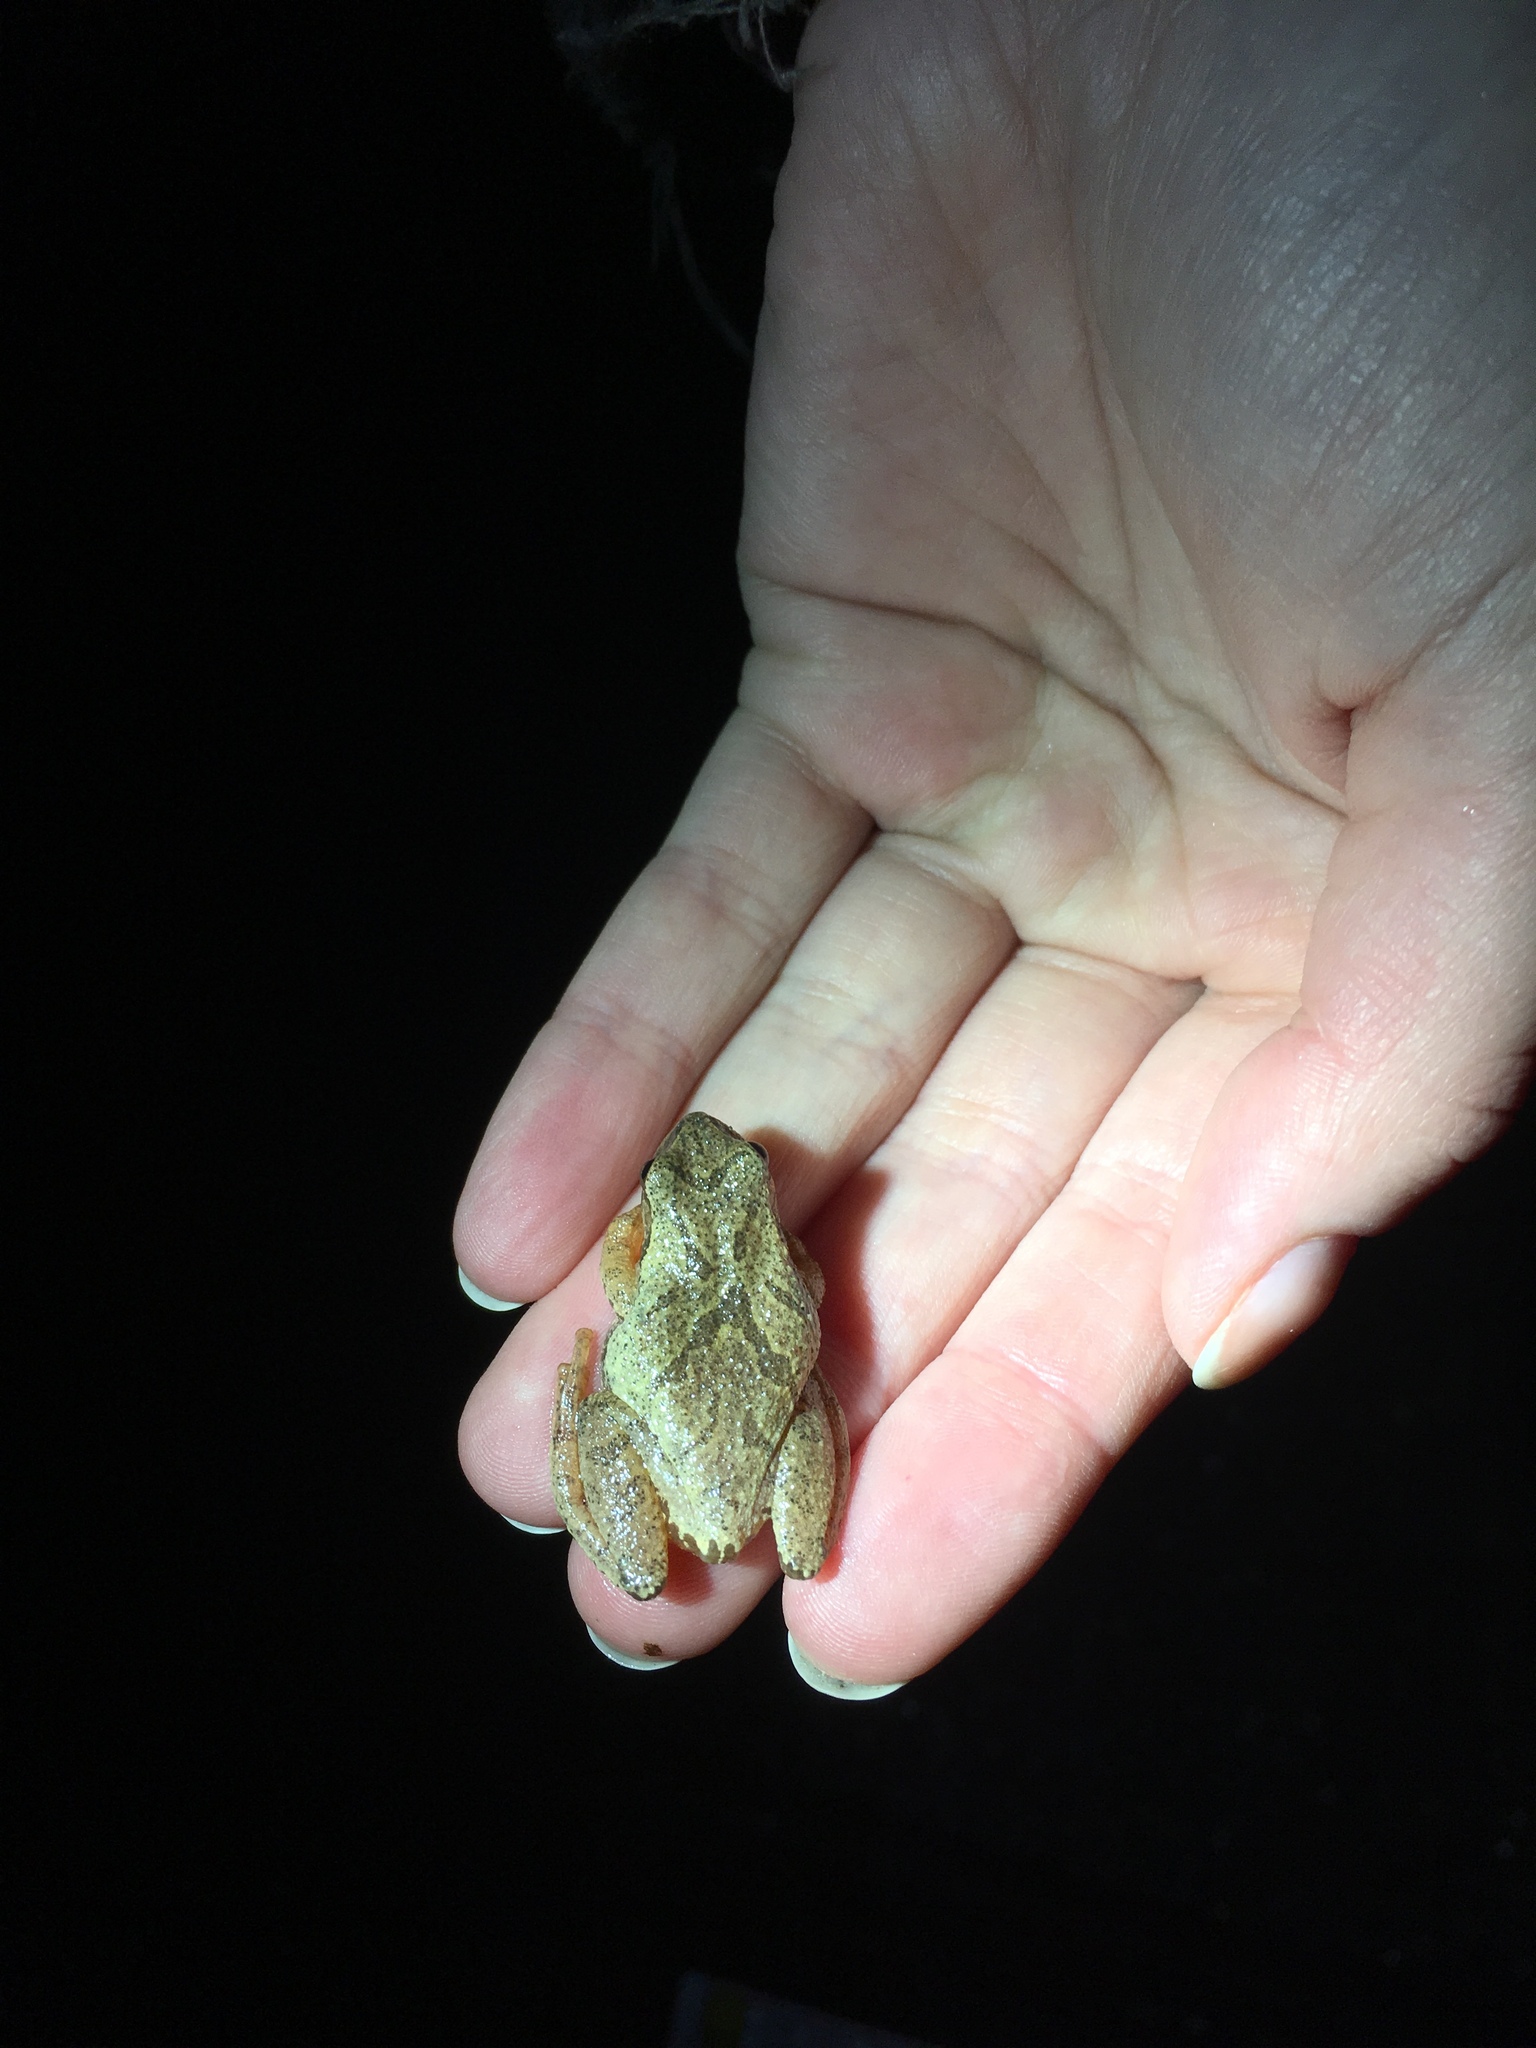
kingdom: Animalia
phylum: Chordata
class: Amphibia
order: Anura
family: Hylidae
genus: Pseudacris
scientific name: Pseudacris crucifer
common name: Spring peeper
